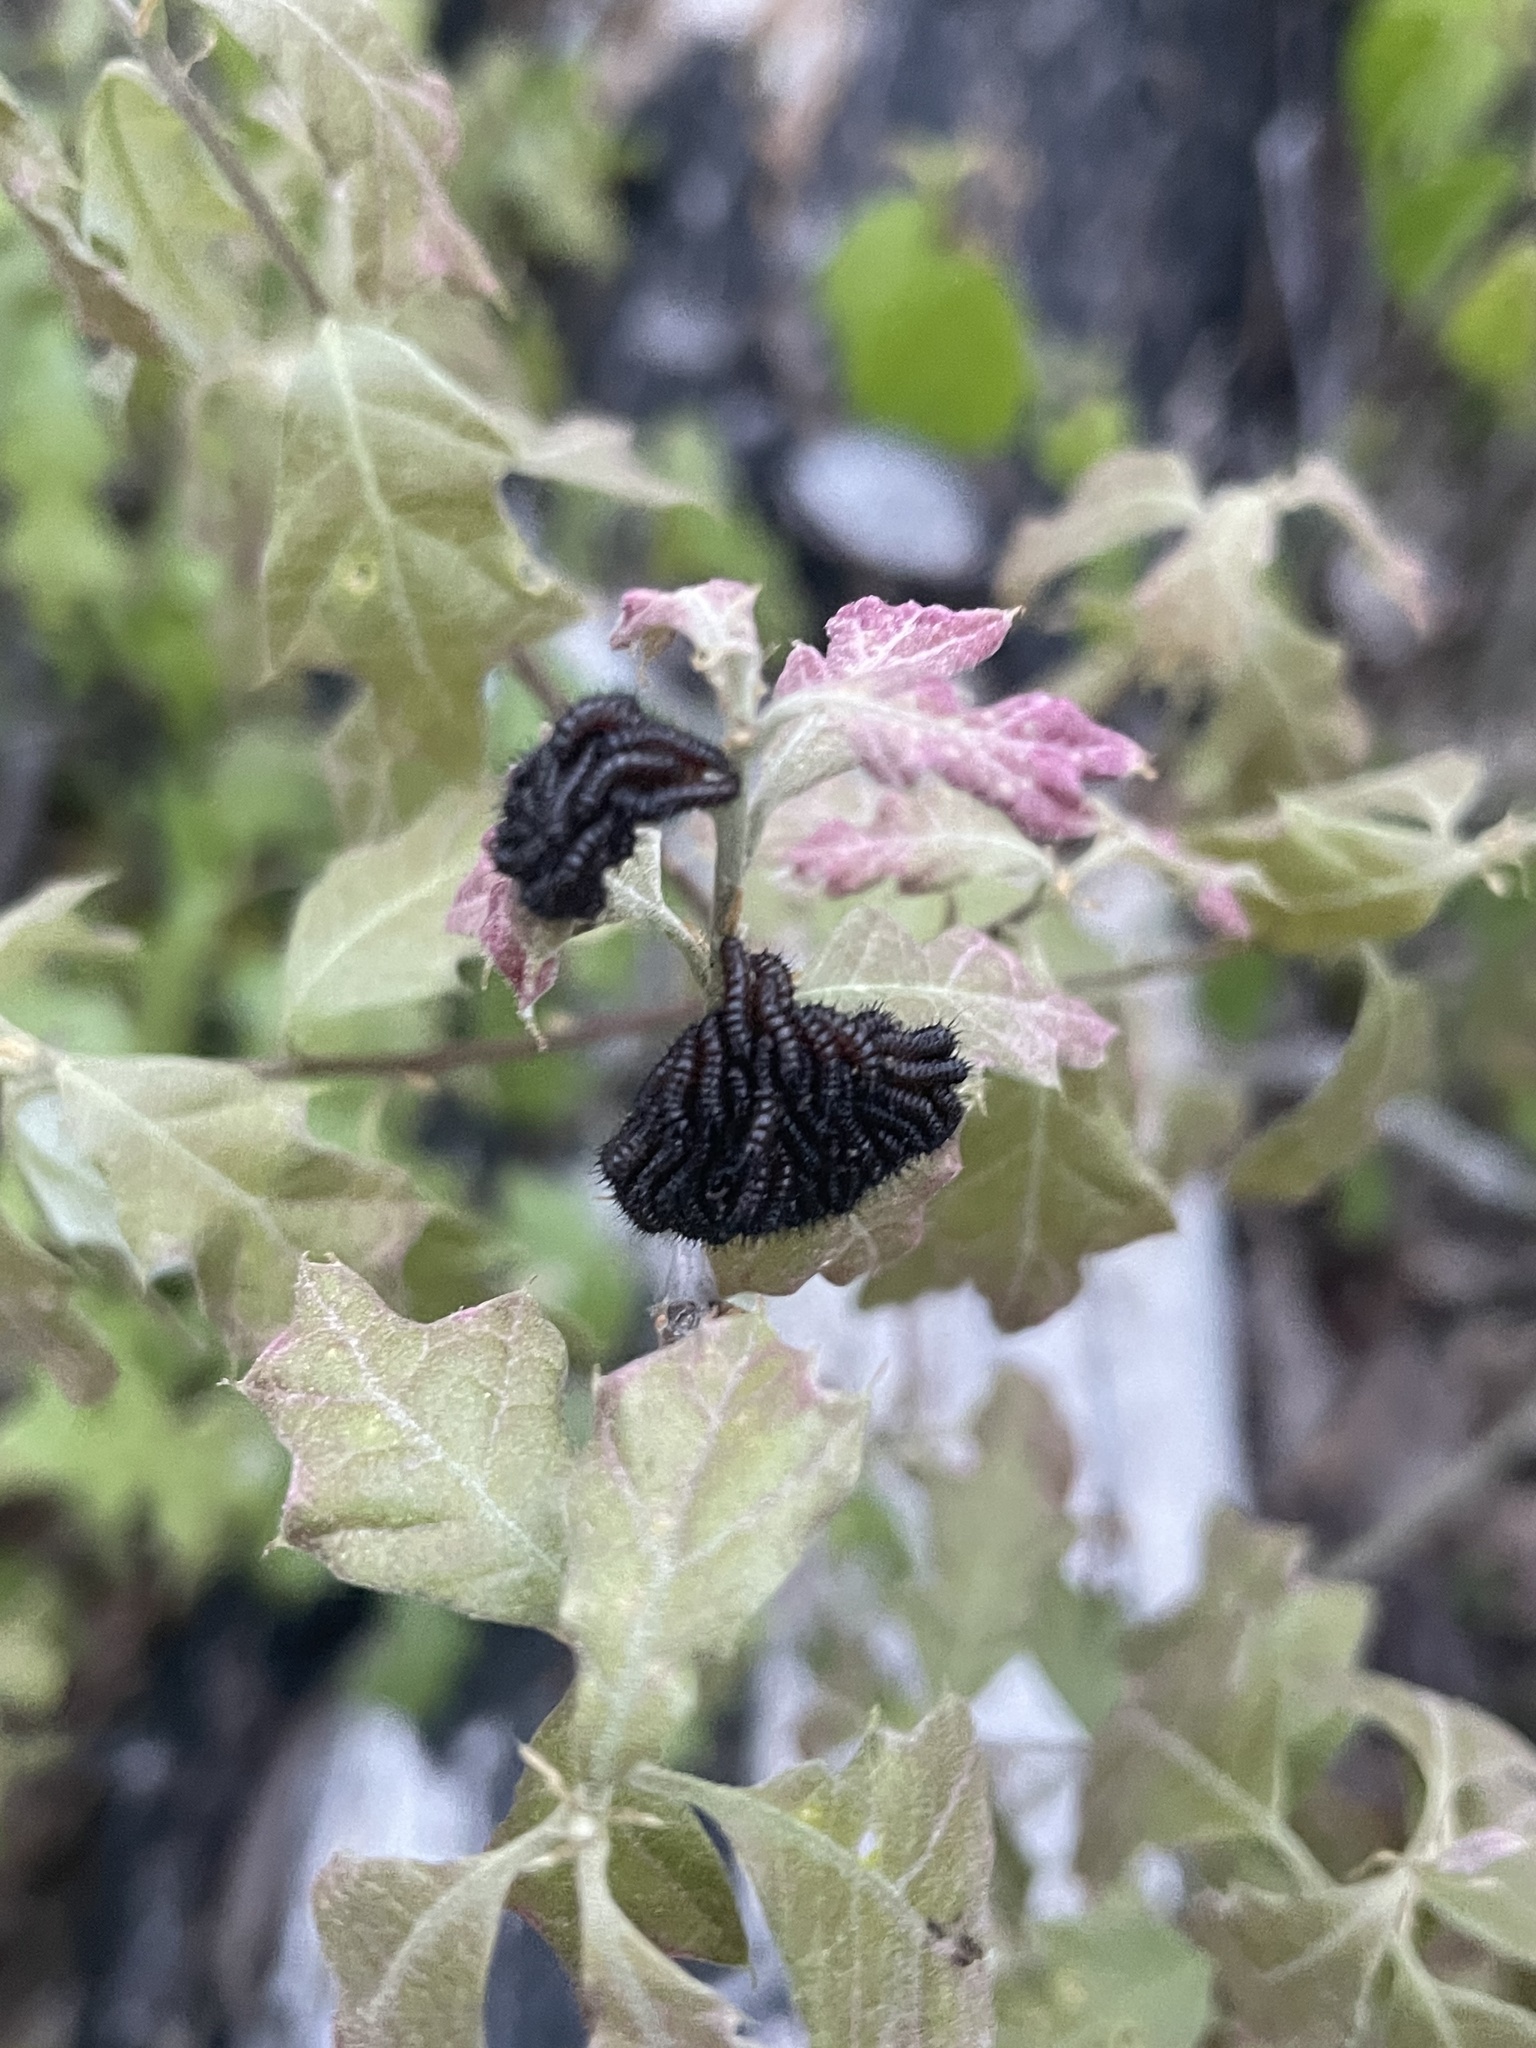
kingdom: Animalia
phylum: Arthropoda
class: Insecta
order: Lepidoptera
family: Saturniidae
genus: Hemileuca
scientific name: Hemileuca maia
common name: Eastern buckmoth
